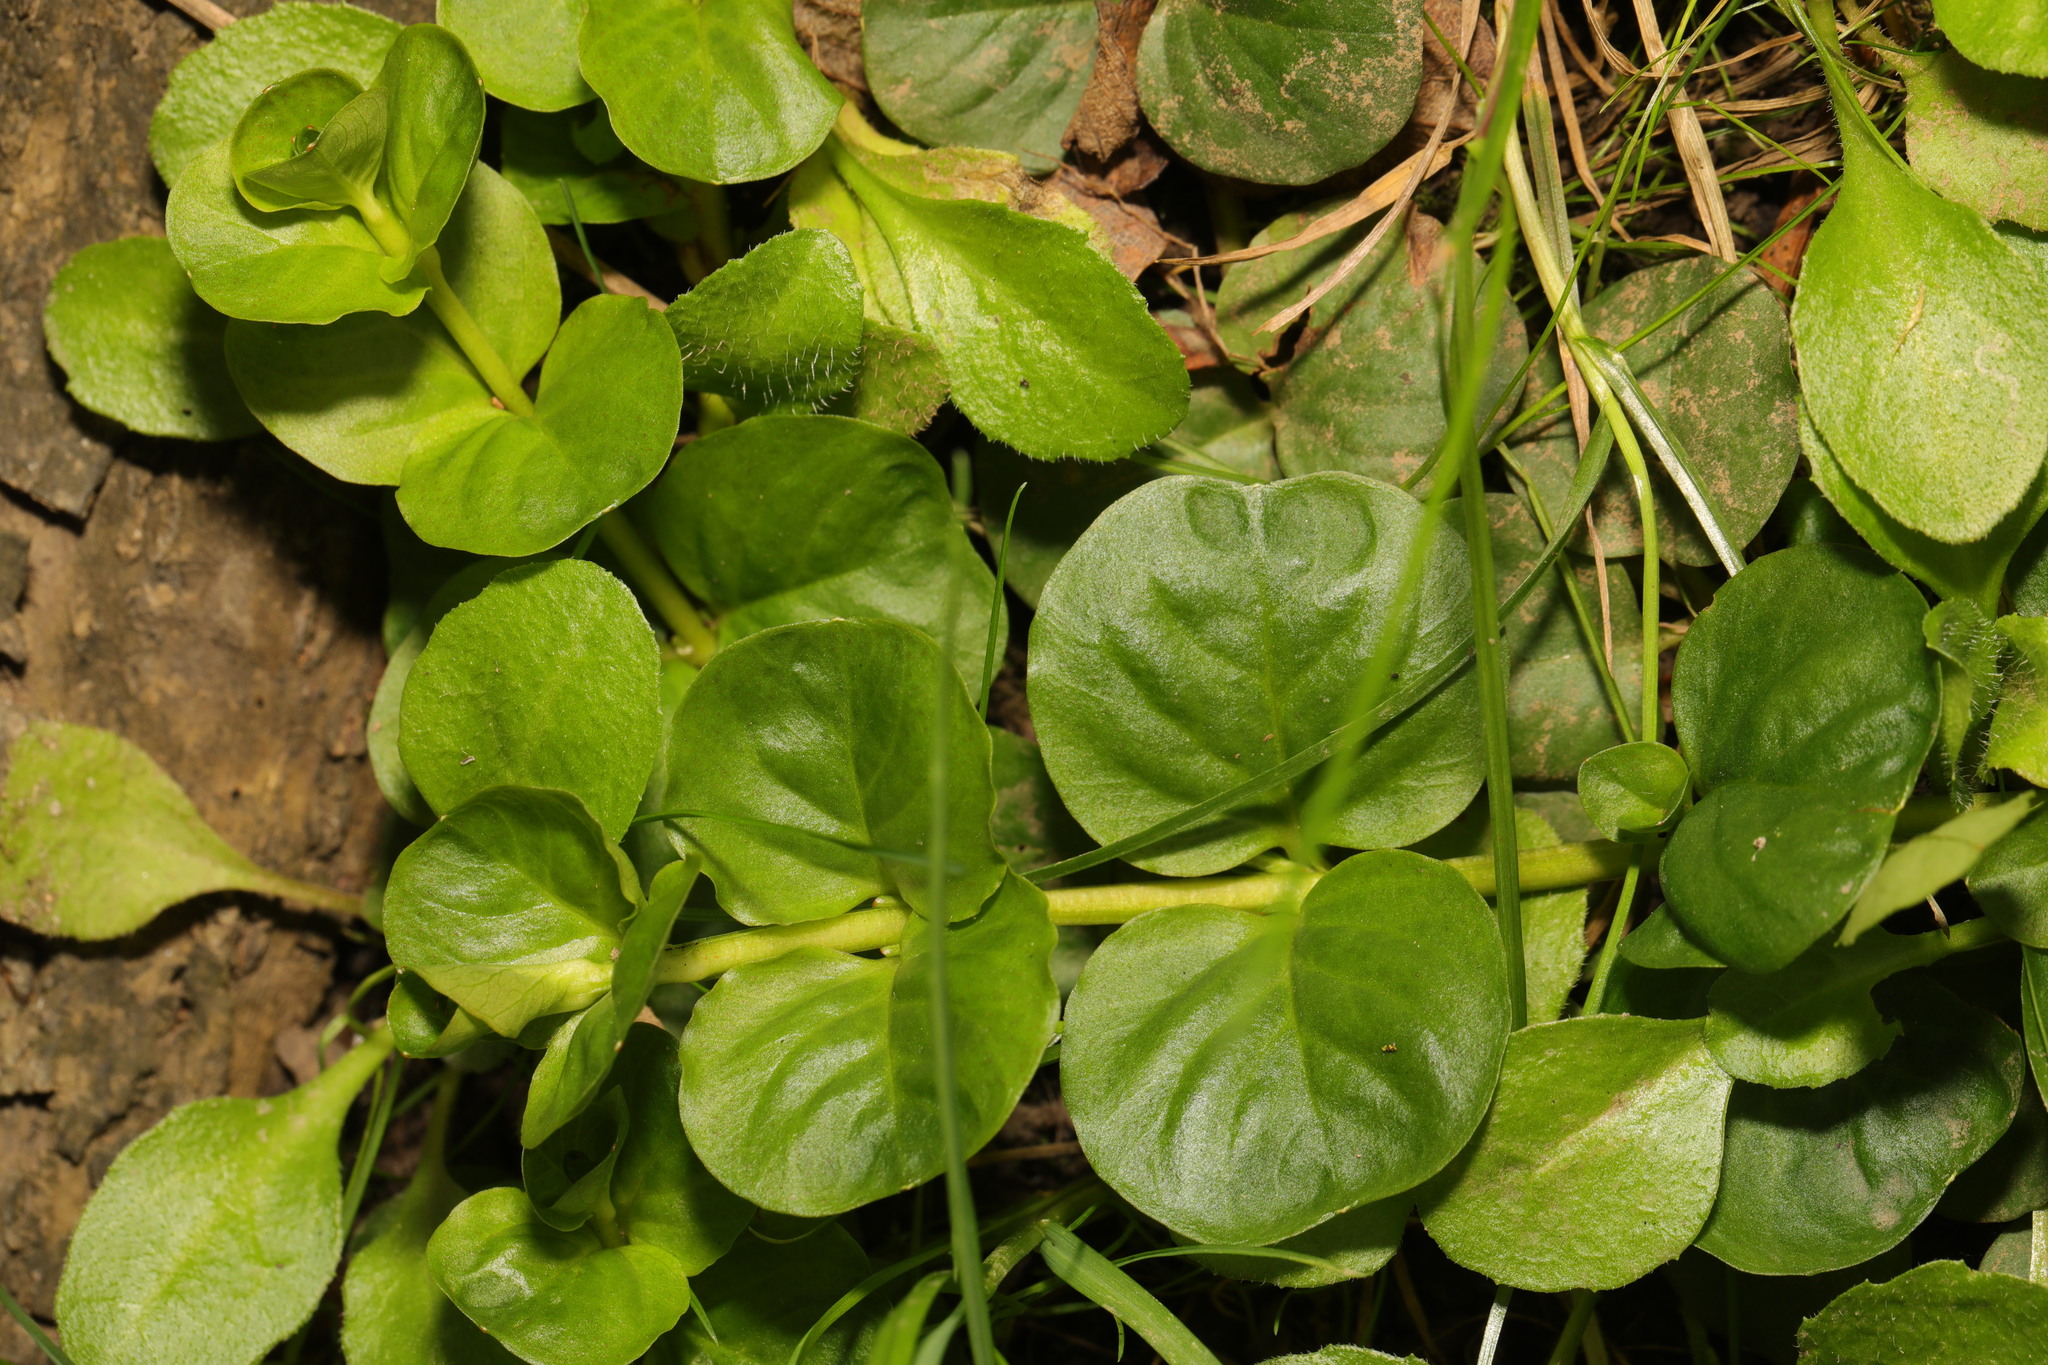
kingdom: Plantae
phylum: Tracheophyta
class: Magnoliopsida
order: Ericales
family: Primulaceae
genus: Lysimachia
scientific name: Lysimachia nummularia
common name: Moneywort
